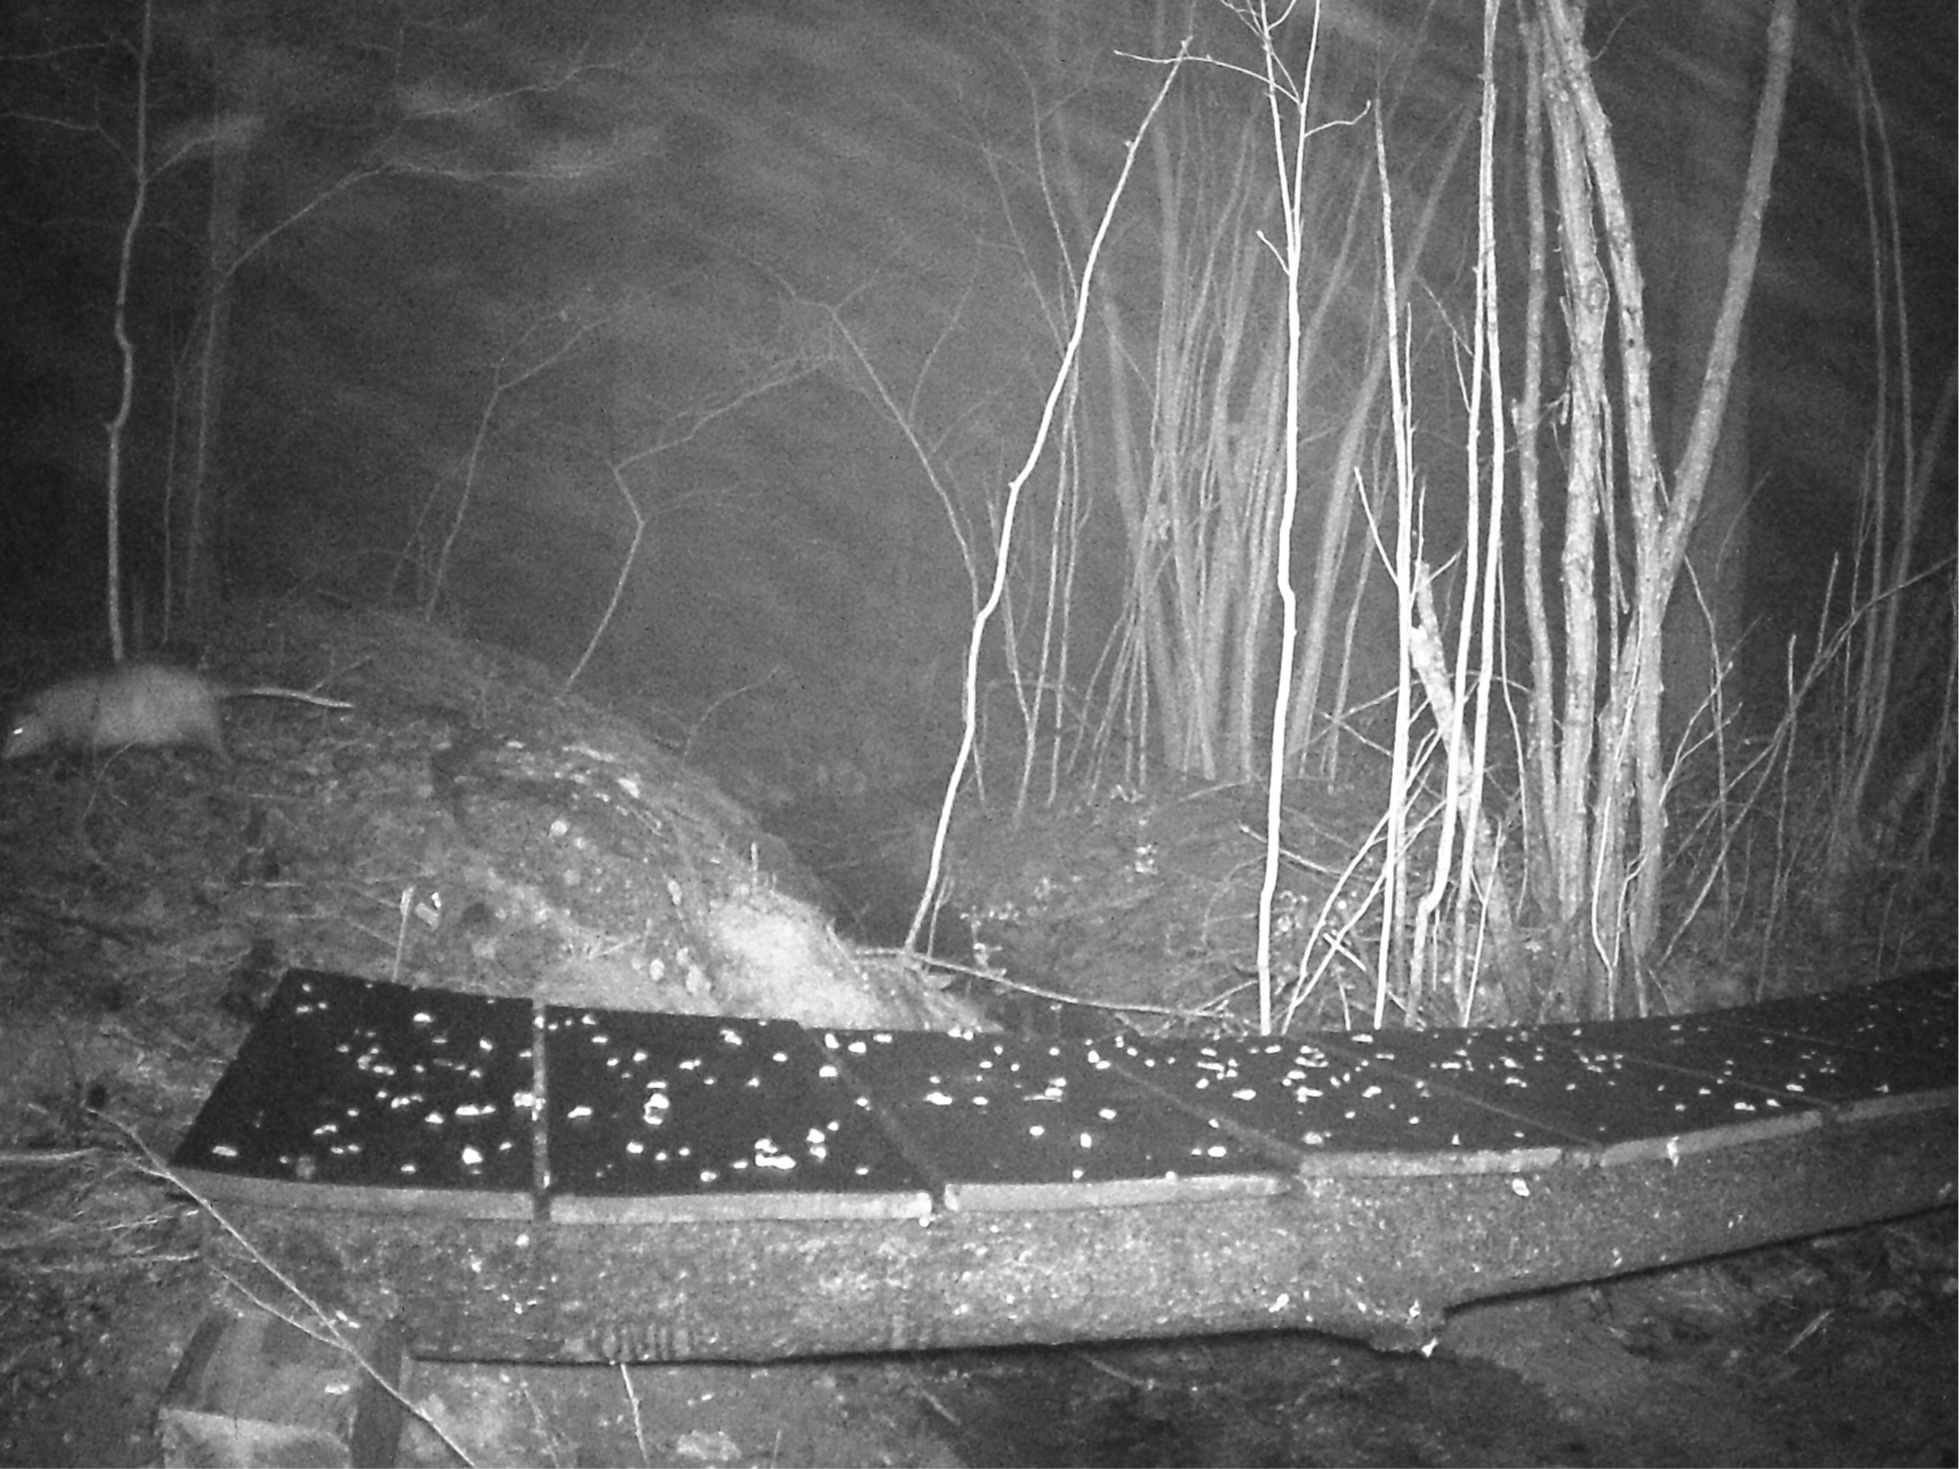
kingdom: Animalia
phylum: Chordata
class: Mammalia
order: Didelphimorphia
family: Didelphidae
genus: Didelphis
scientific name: Didelphis virginiana
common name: Virginia opossum
